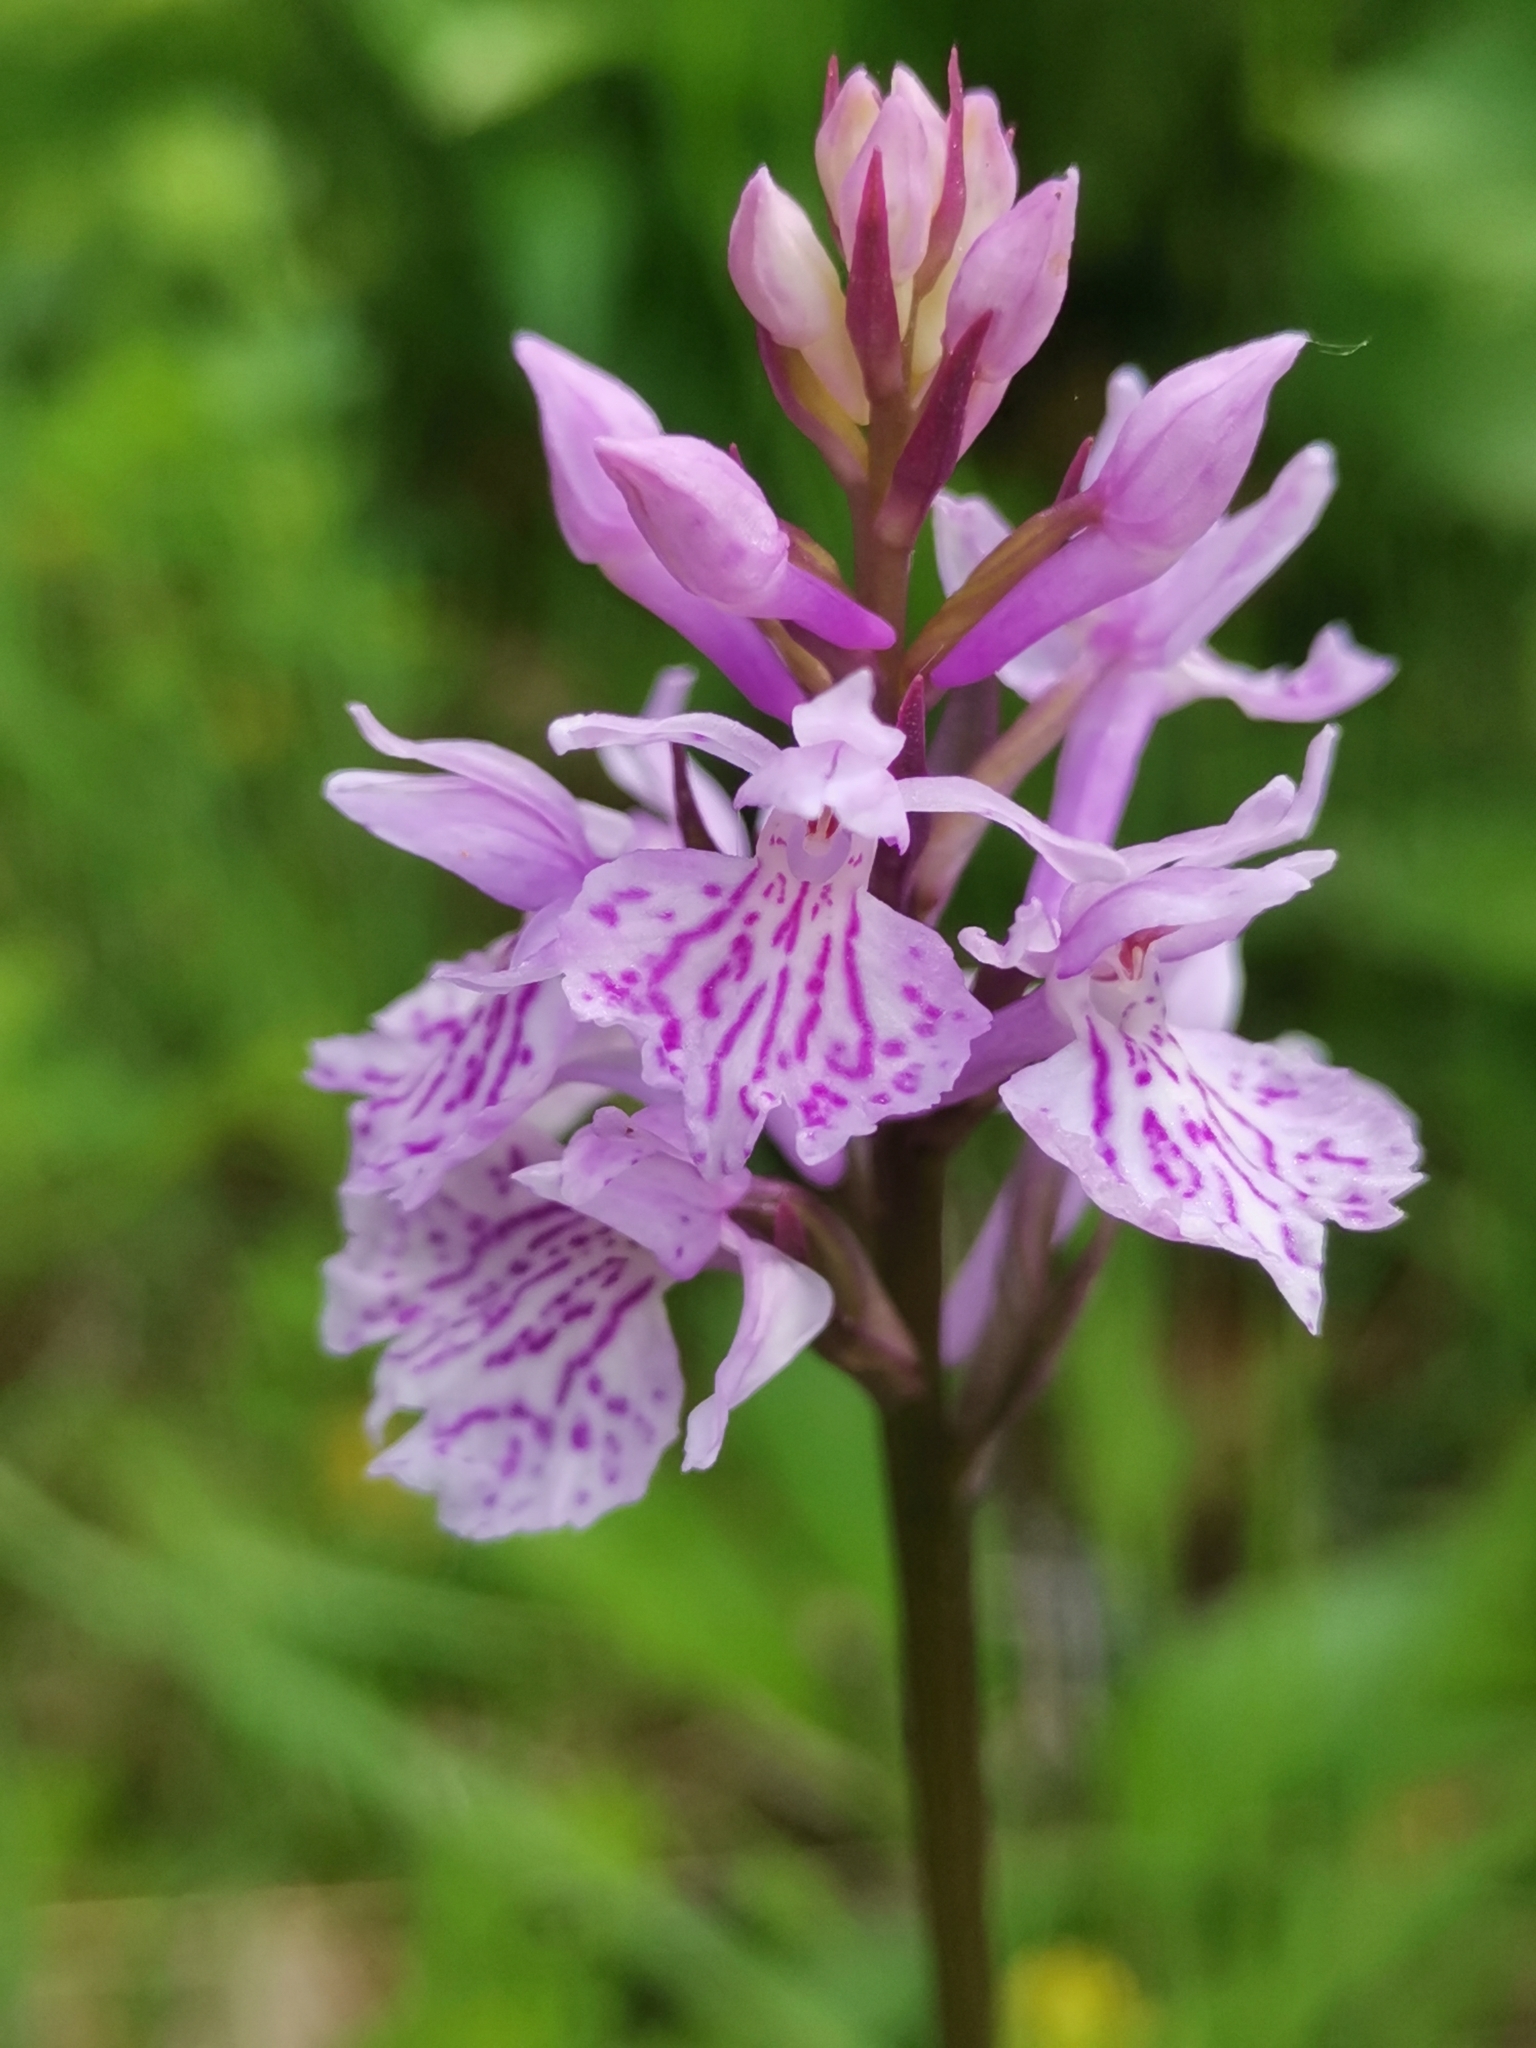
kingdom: Plantae
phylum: Tracheophyta
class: Liliopsida
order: Asparagales
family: Orchidaceae
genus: Dactylorhiza
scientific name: Dactylorhiza maculata
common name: Heath spotted-orchid
